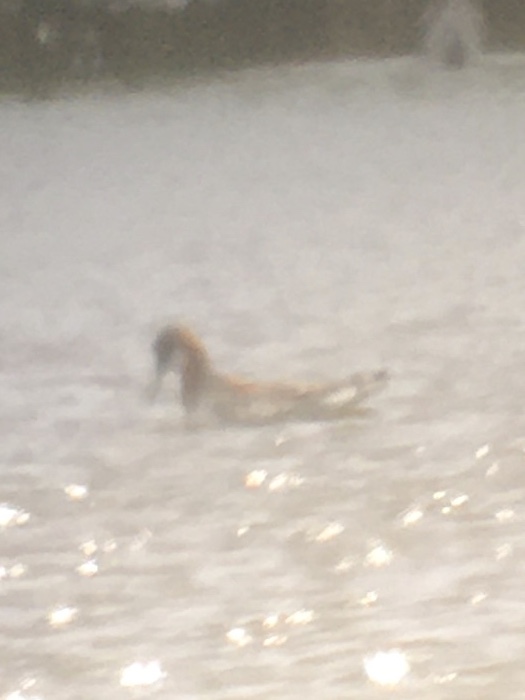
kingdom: Animalia
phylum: Chordata
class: Aves
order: Charadriiformes
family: Scolopacidae
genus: Phalaropus
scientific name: Phalaropus lobatus
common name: Red-necked phalarope
